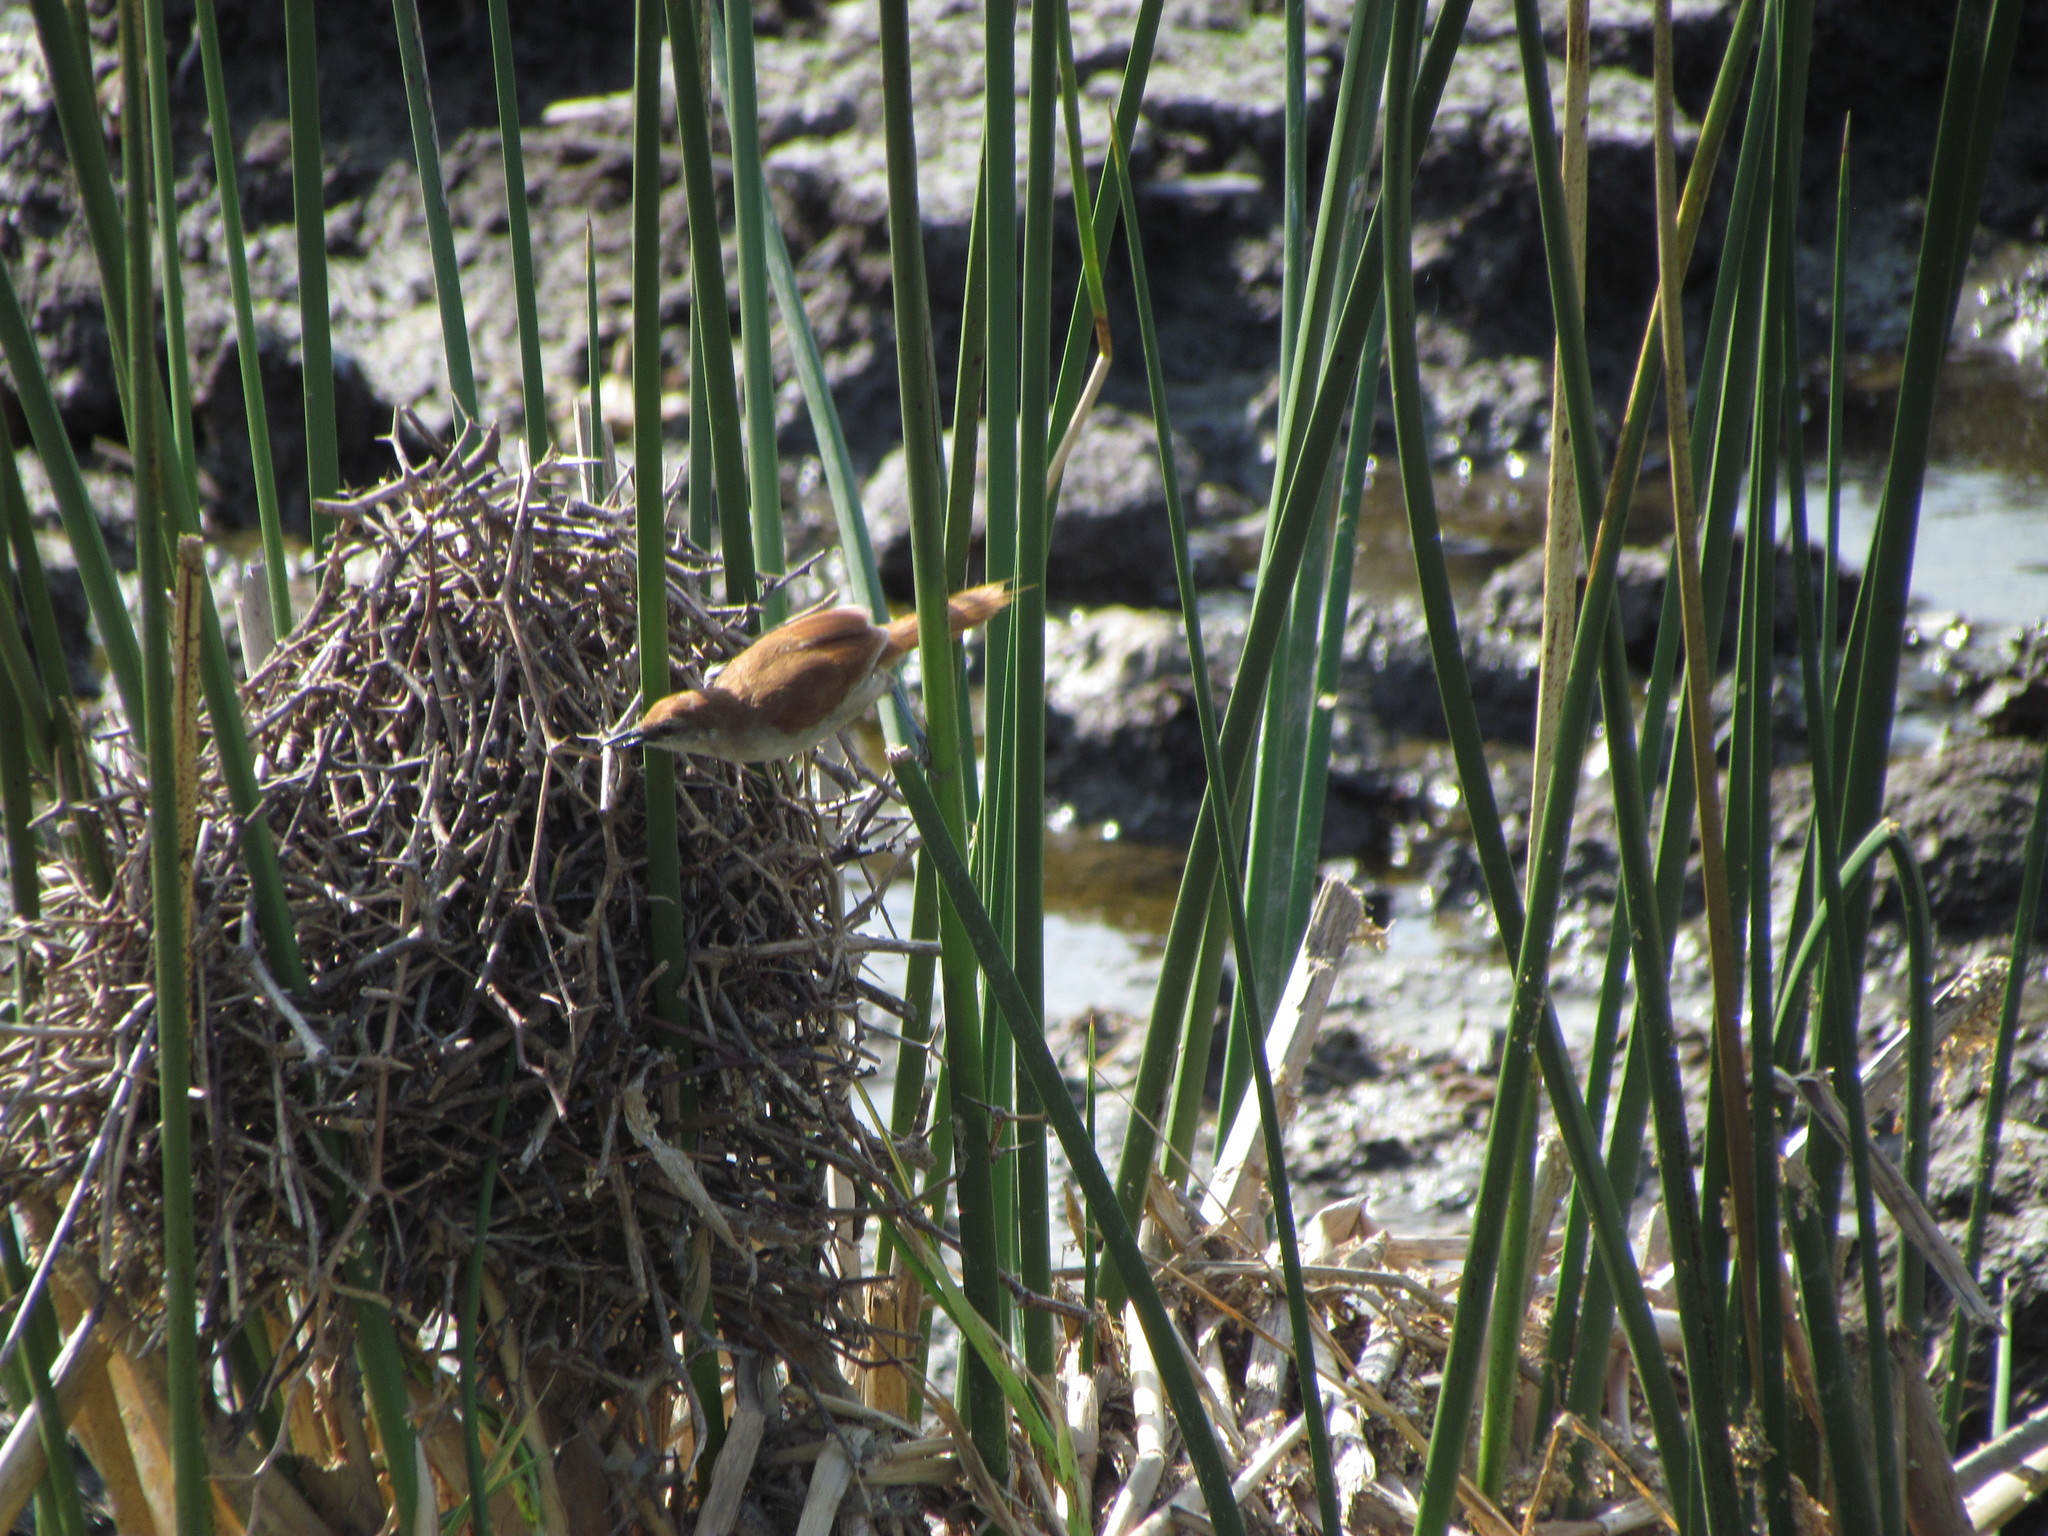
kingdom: Animalia
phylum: Chordata
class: Aves
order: Passeriformes
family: Furnariidae
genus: Certhiaxis
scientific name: Certhiaxis cinnamomeus
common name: Yellow-chinned spinetail
